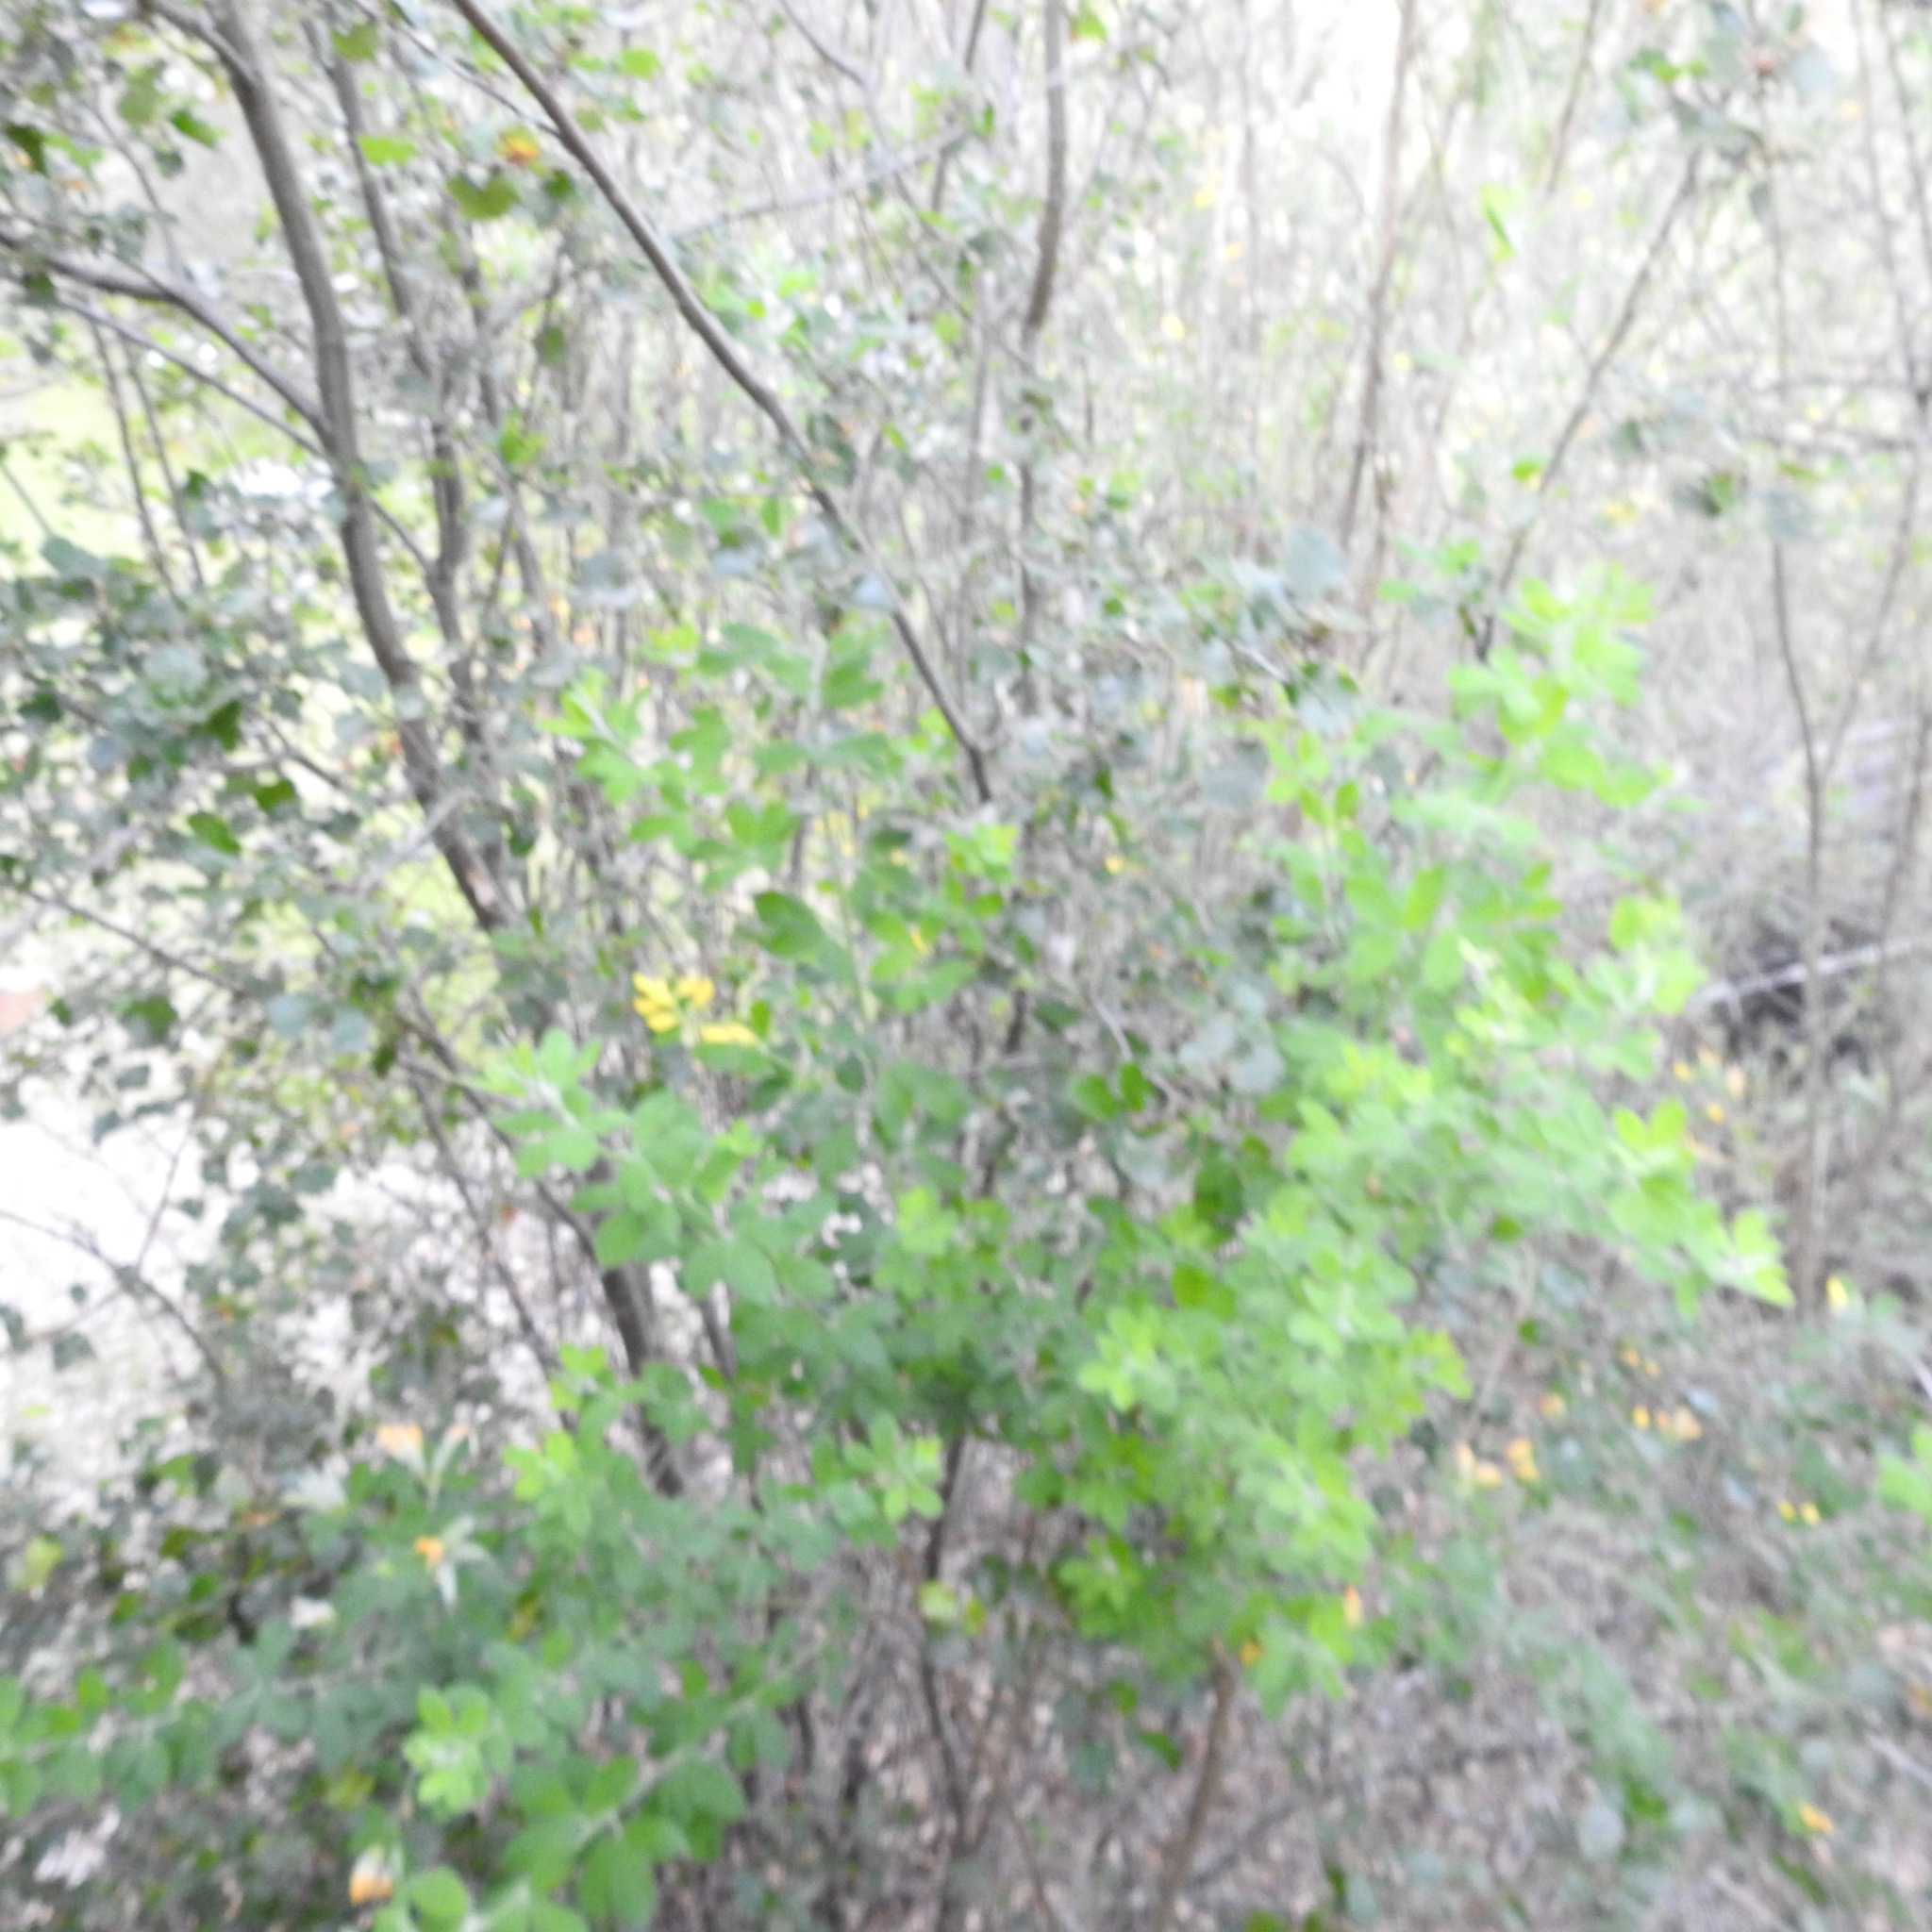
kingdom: Plantae
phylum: Tracheophyta
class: Magnoliopsida
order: Fabales
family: Fabaceae
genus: Genista
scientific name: Genista monspessulana
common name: Montpellier broom
